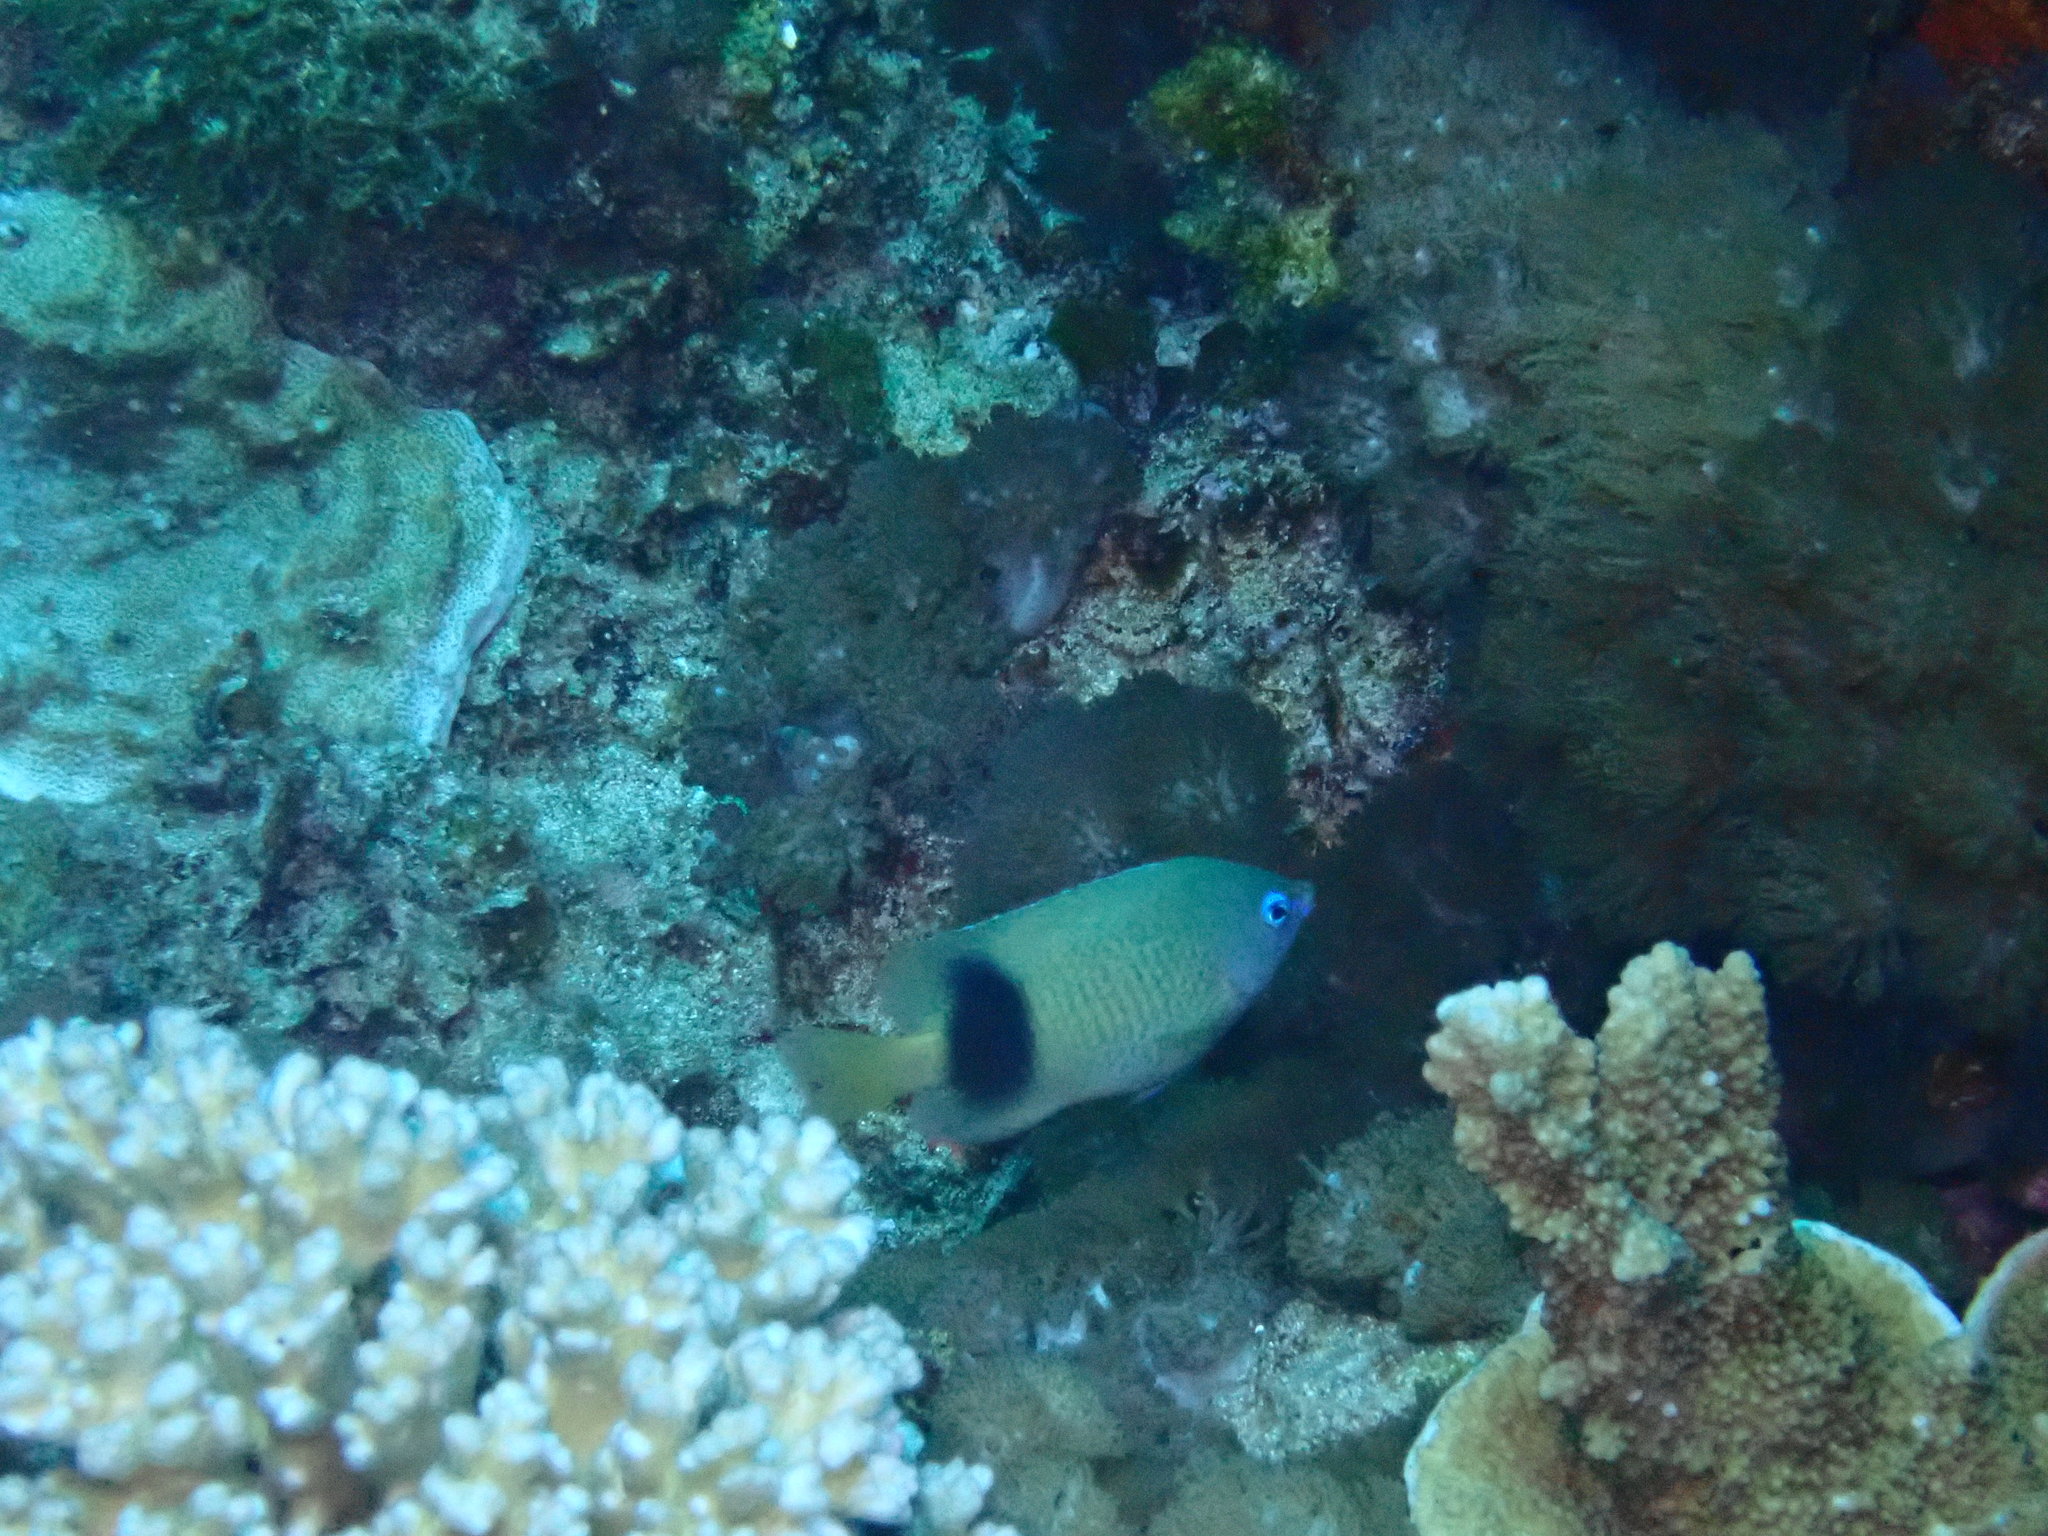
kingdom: Animalia
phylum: Chordata
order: Perciformes
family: Pomacentridae
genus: Plectroglyphidodon
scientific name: Plectroglyphidodon johnstonianus
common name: Johnston damsel
